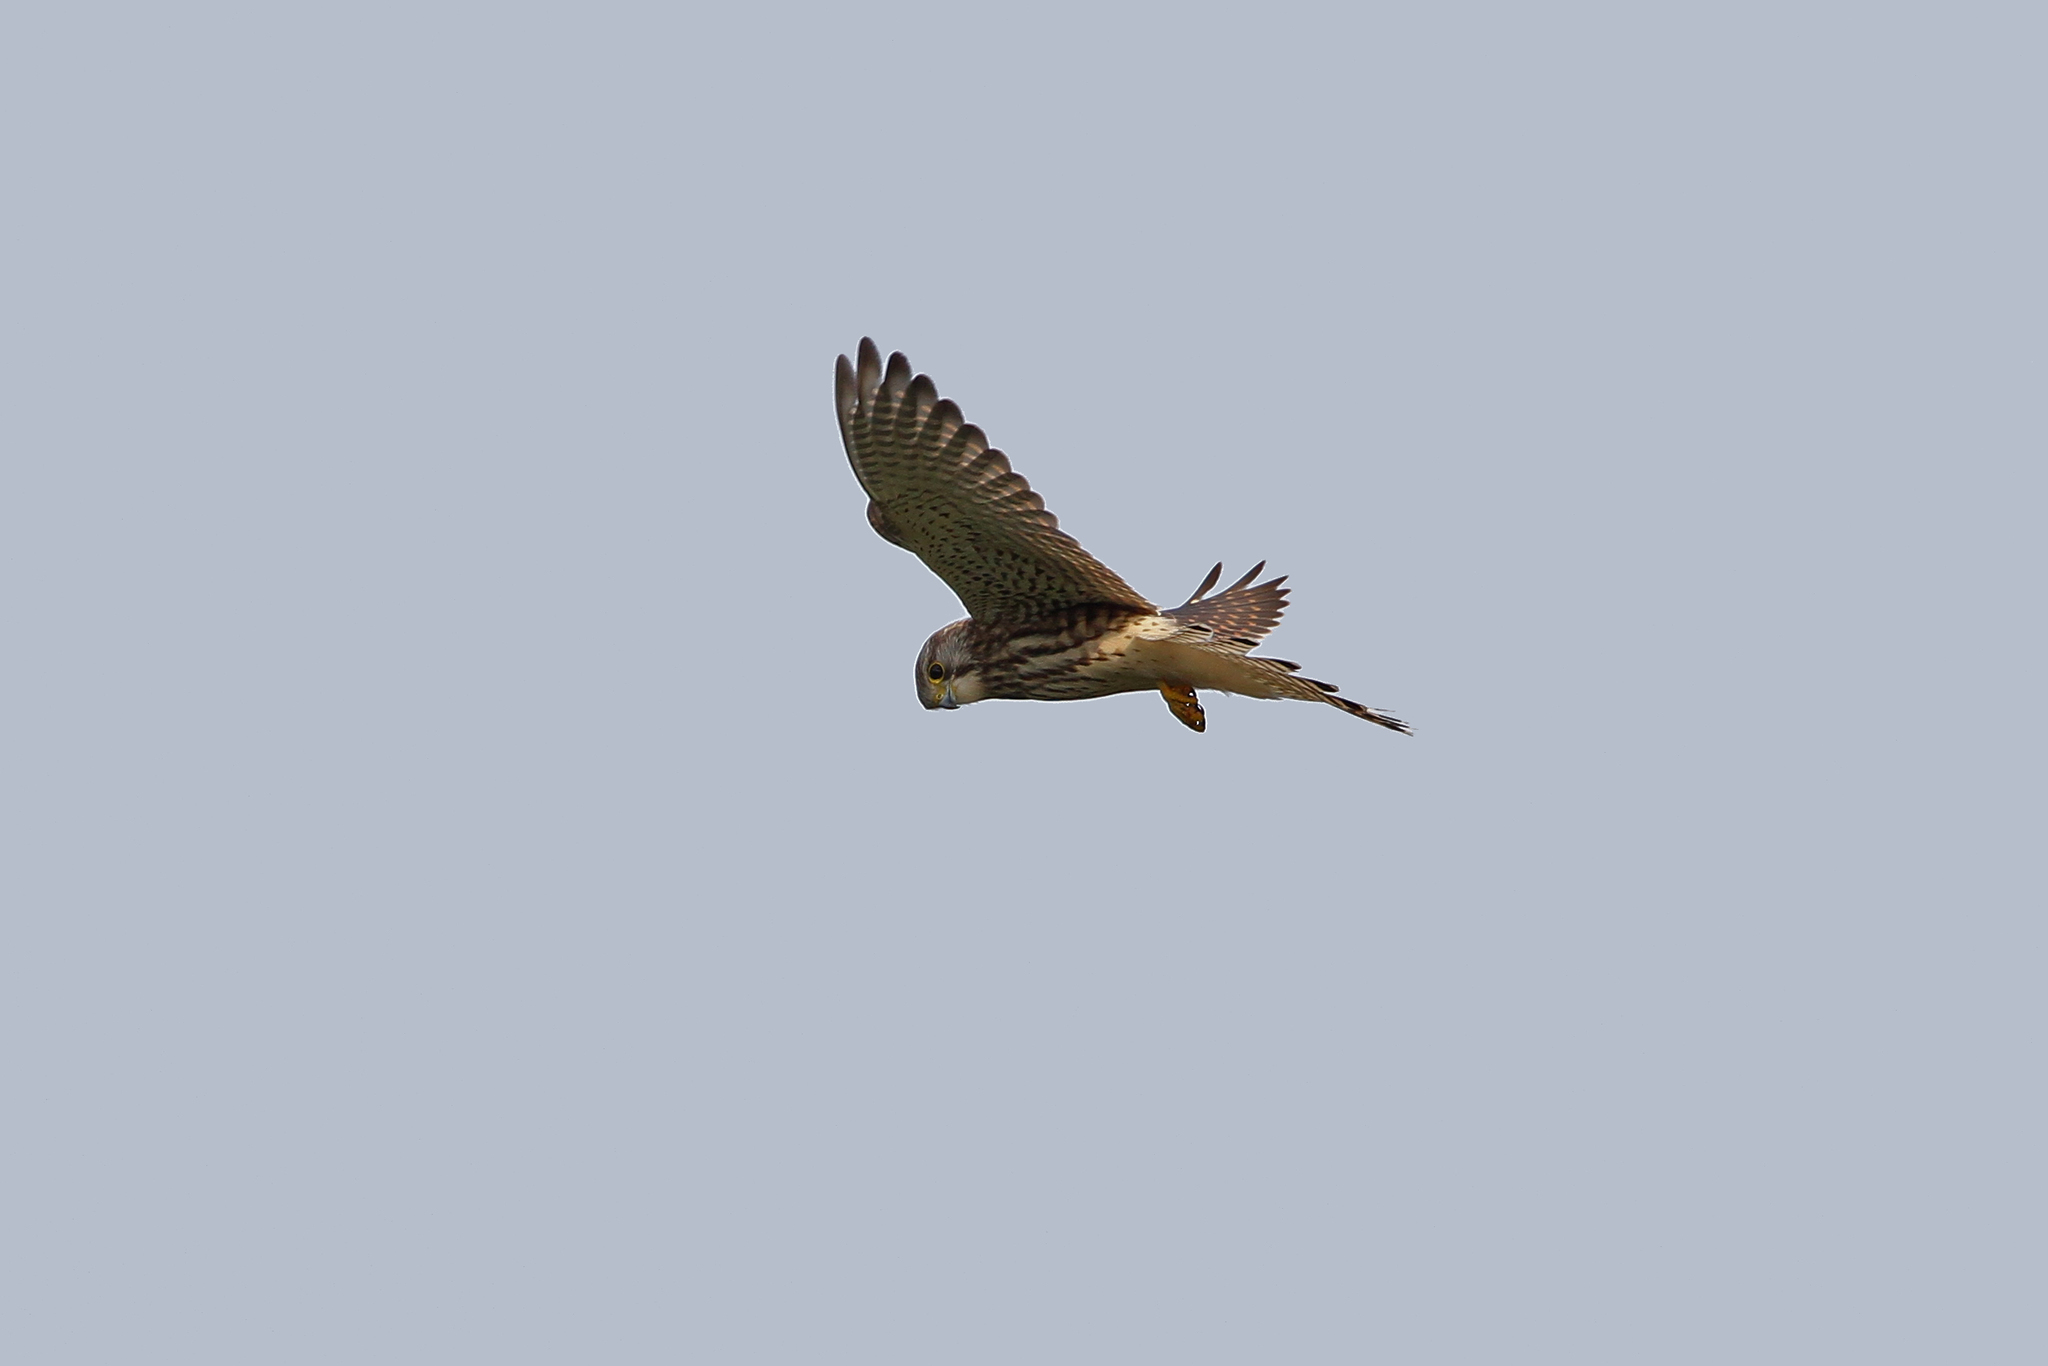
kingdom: Animalia
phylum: Chordata
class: Aves
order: Falconiformes
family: Falconidae
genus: Falco
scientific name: Falco tinnunculus
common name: Common kestrel
